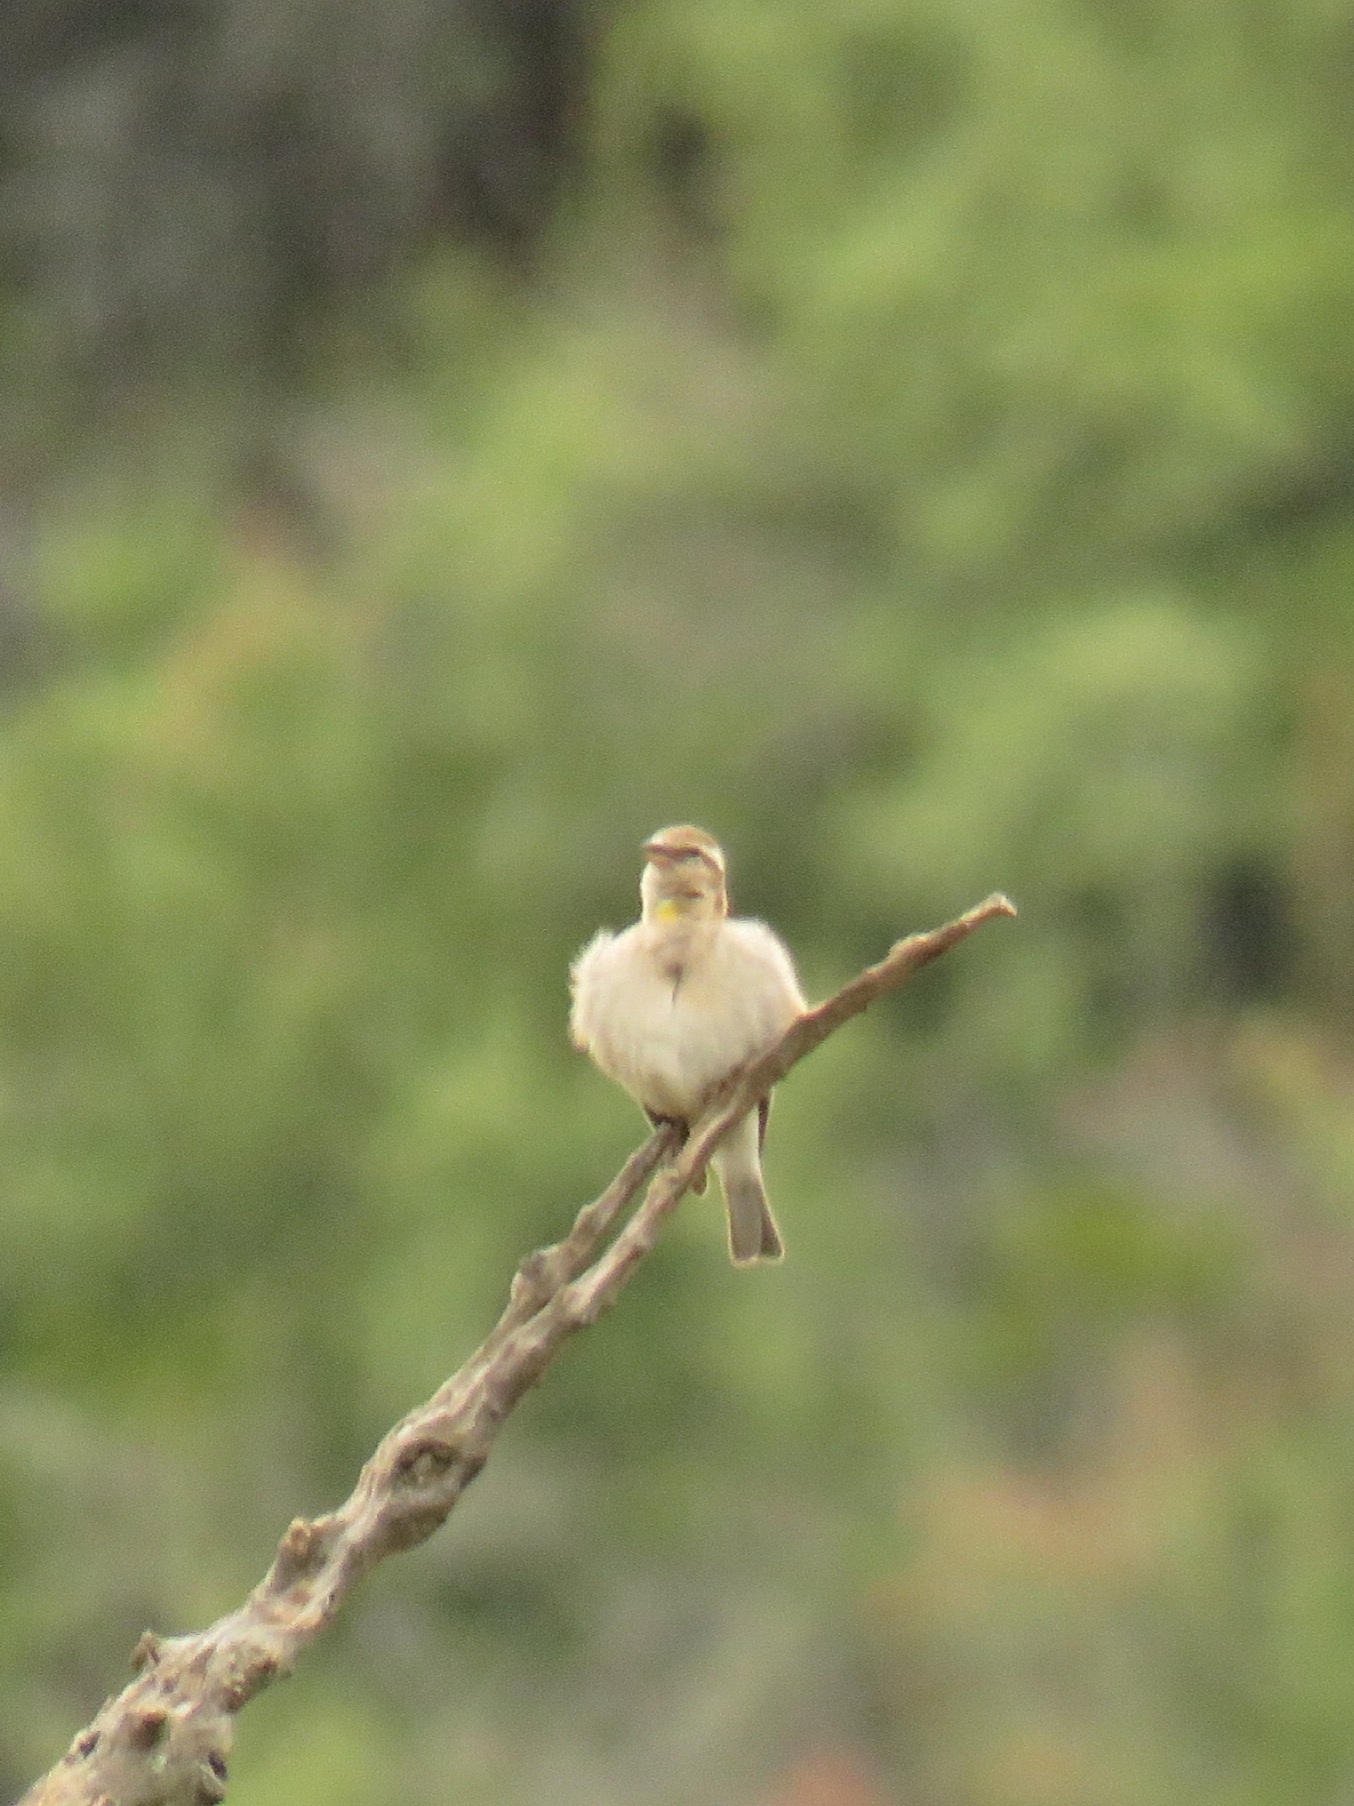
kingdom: Animalia
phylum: Chordata
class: Aves
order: Passeriformes
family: Passeridae
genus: Gymnoris
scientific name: Gymnoris superciliaris
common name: Yellow-throated petronia
